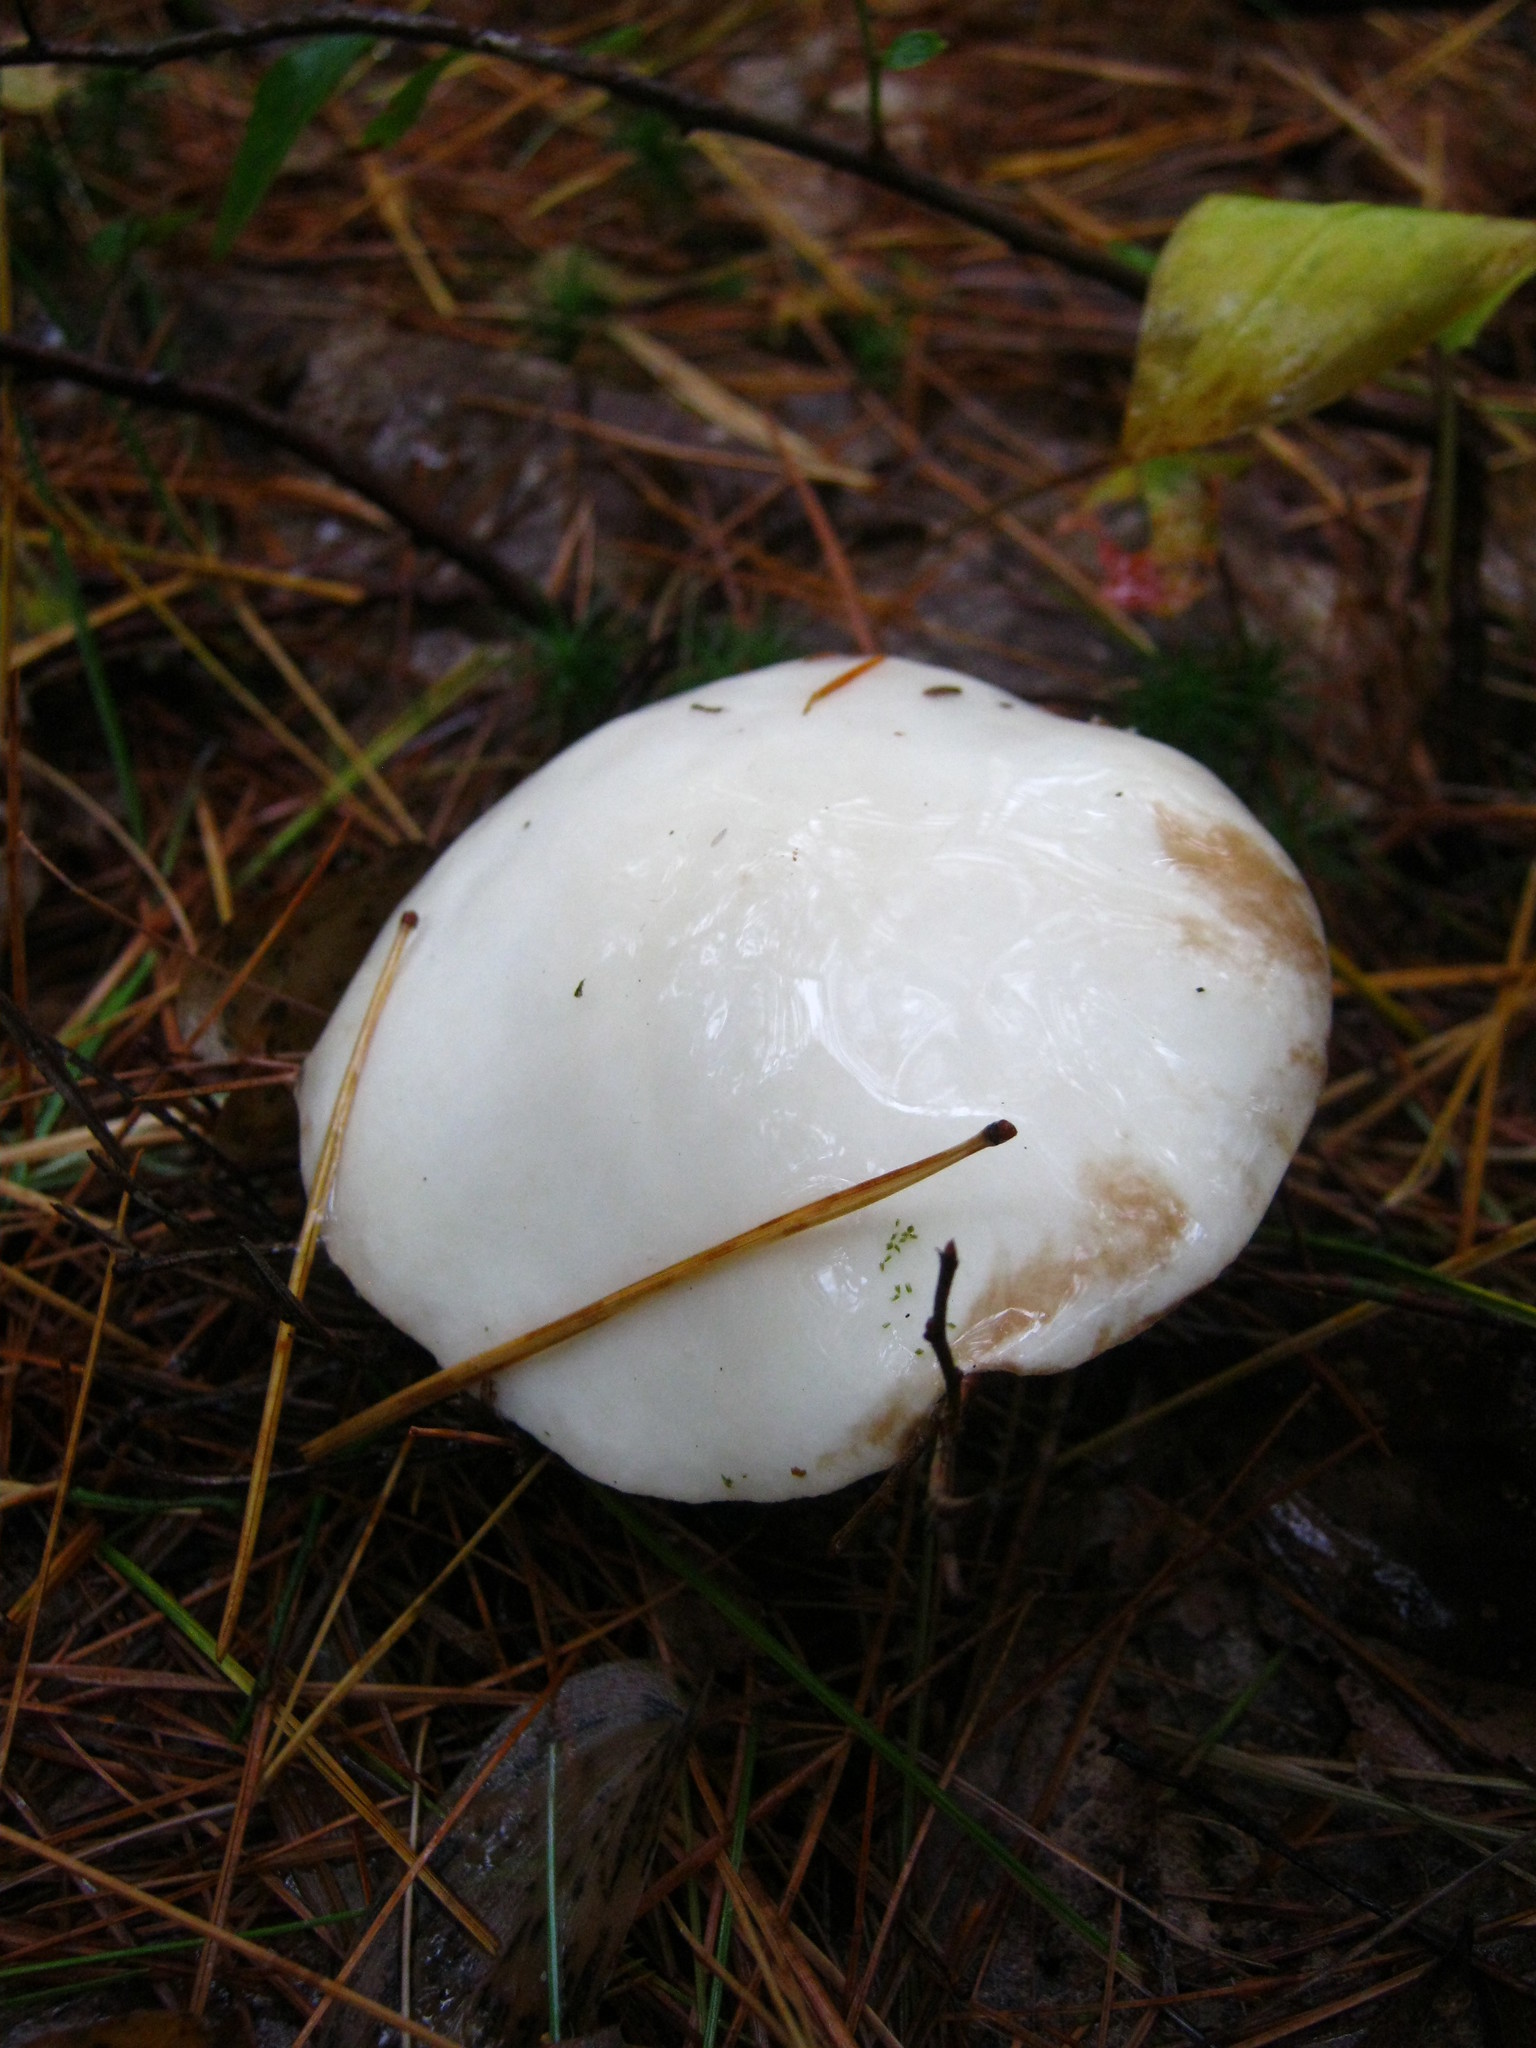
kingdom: Fungi
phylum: Basidiomycota
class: Agaricomycetes
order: Boletales
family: Suillaceae
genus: Suillus
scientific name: Suillus placidus
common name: Slippery white bolete
